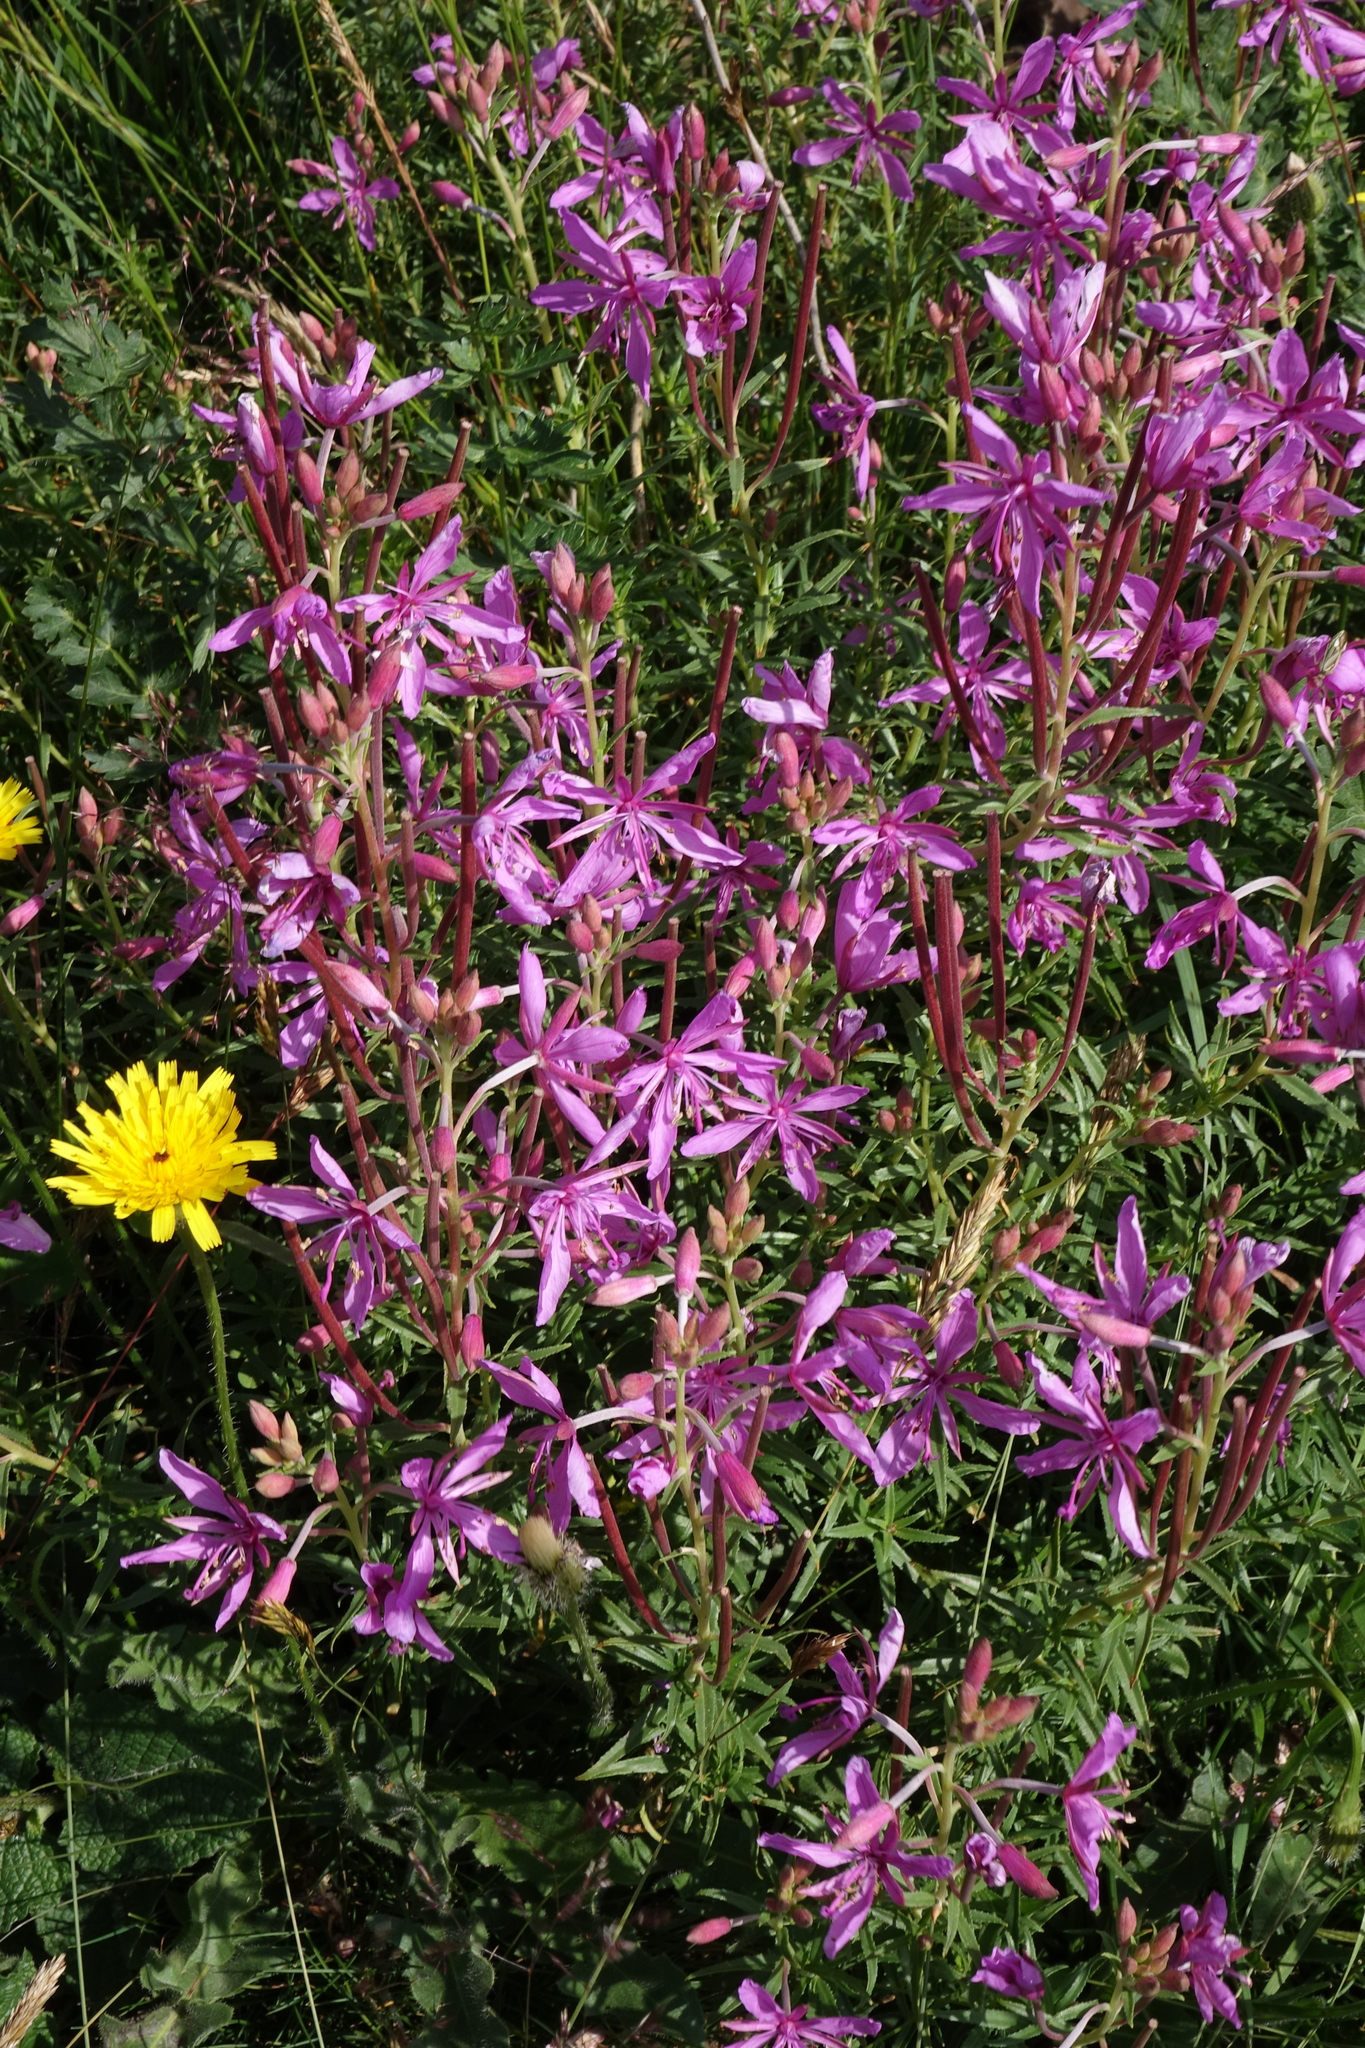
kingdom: Plantae
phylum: Tracheophyta
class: Magnoliopsida
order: Myrtales
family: Onagraceae
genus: Chamaenerion
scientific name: Chamaenerion colchicum
